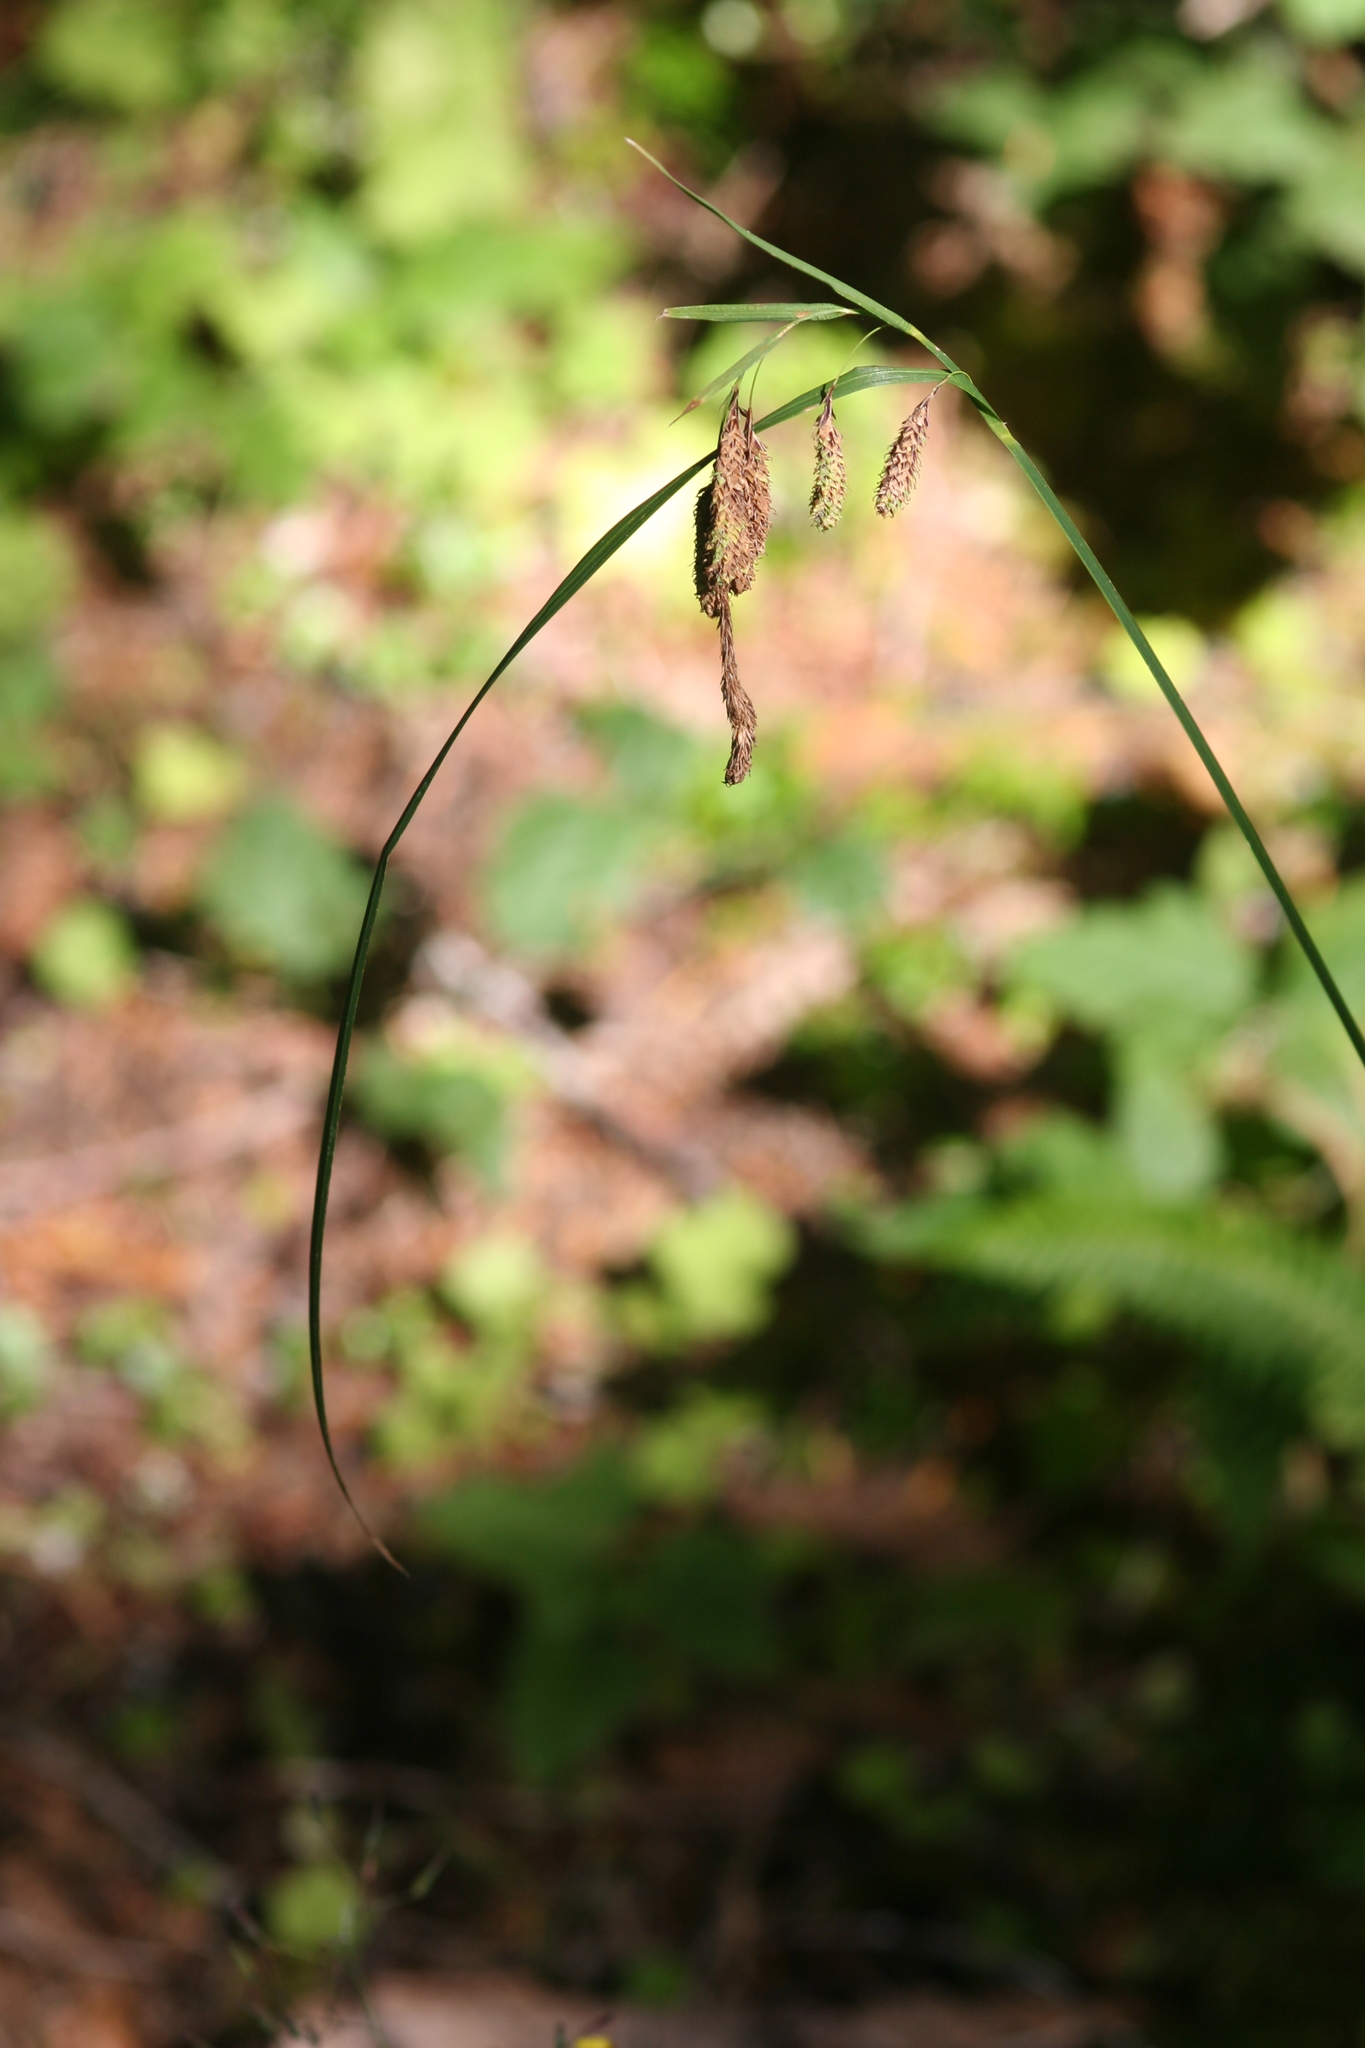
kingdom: Plantae
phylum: Tracheophyta
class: Liliopsida
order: Poales
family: Cyperaceae
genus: Carex
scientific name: Carex mertensii
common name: Mertens' sedge
